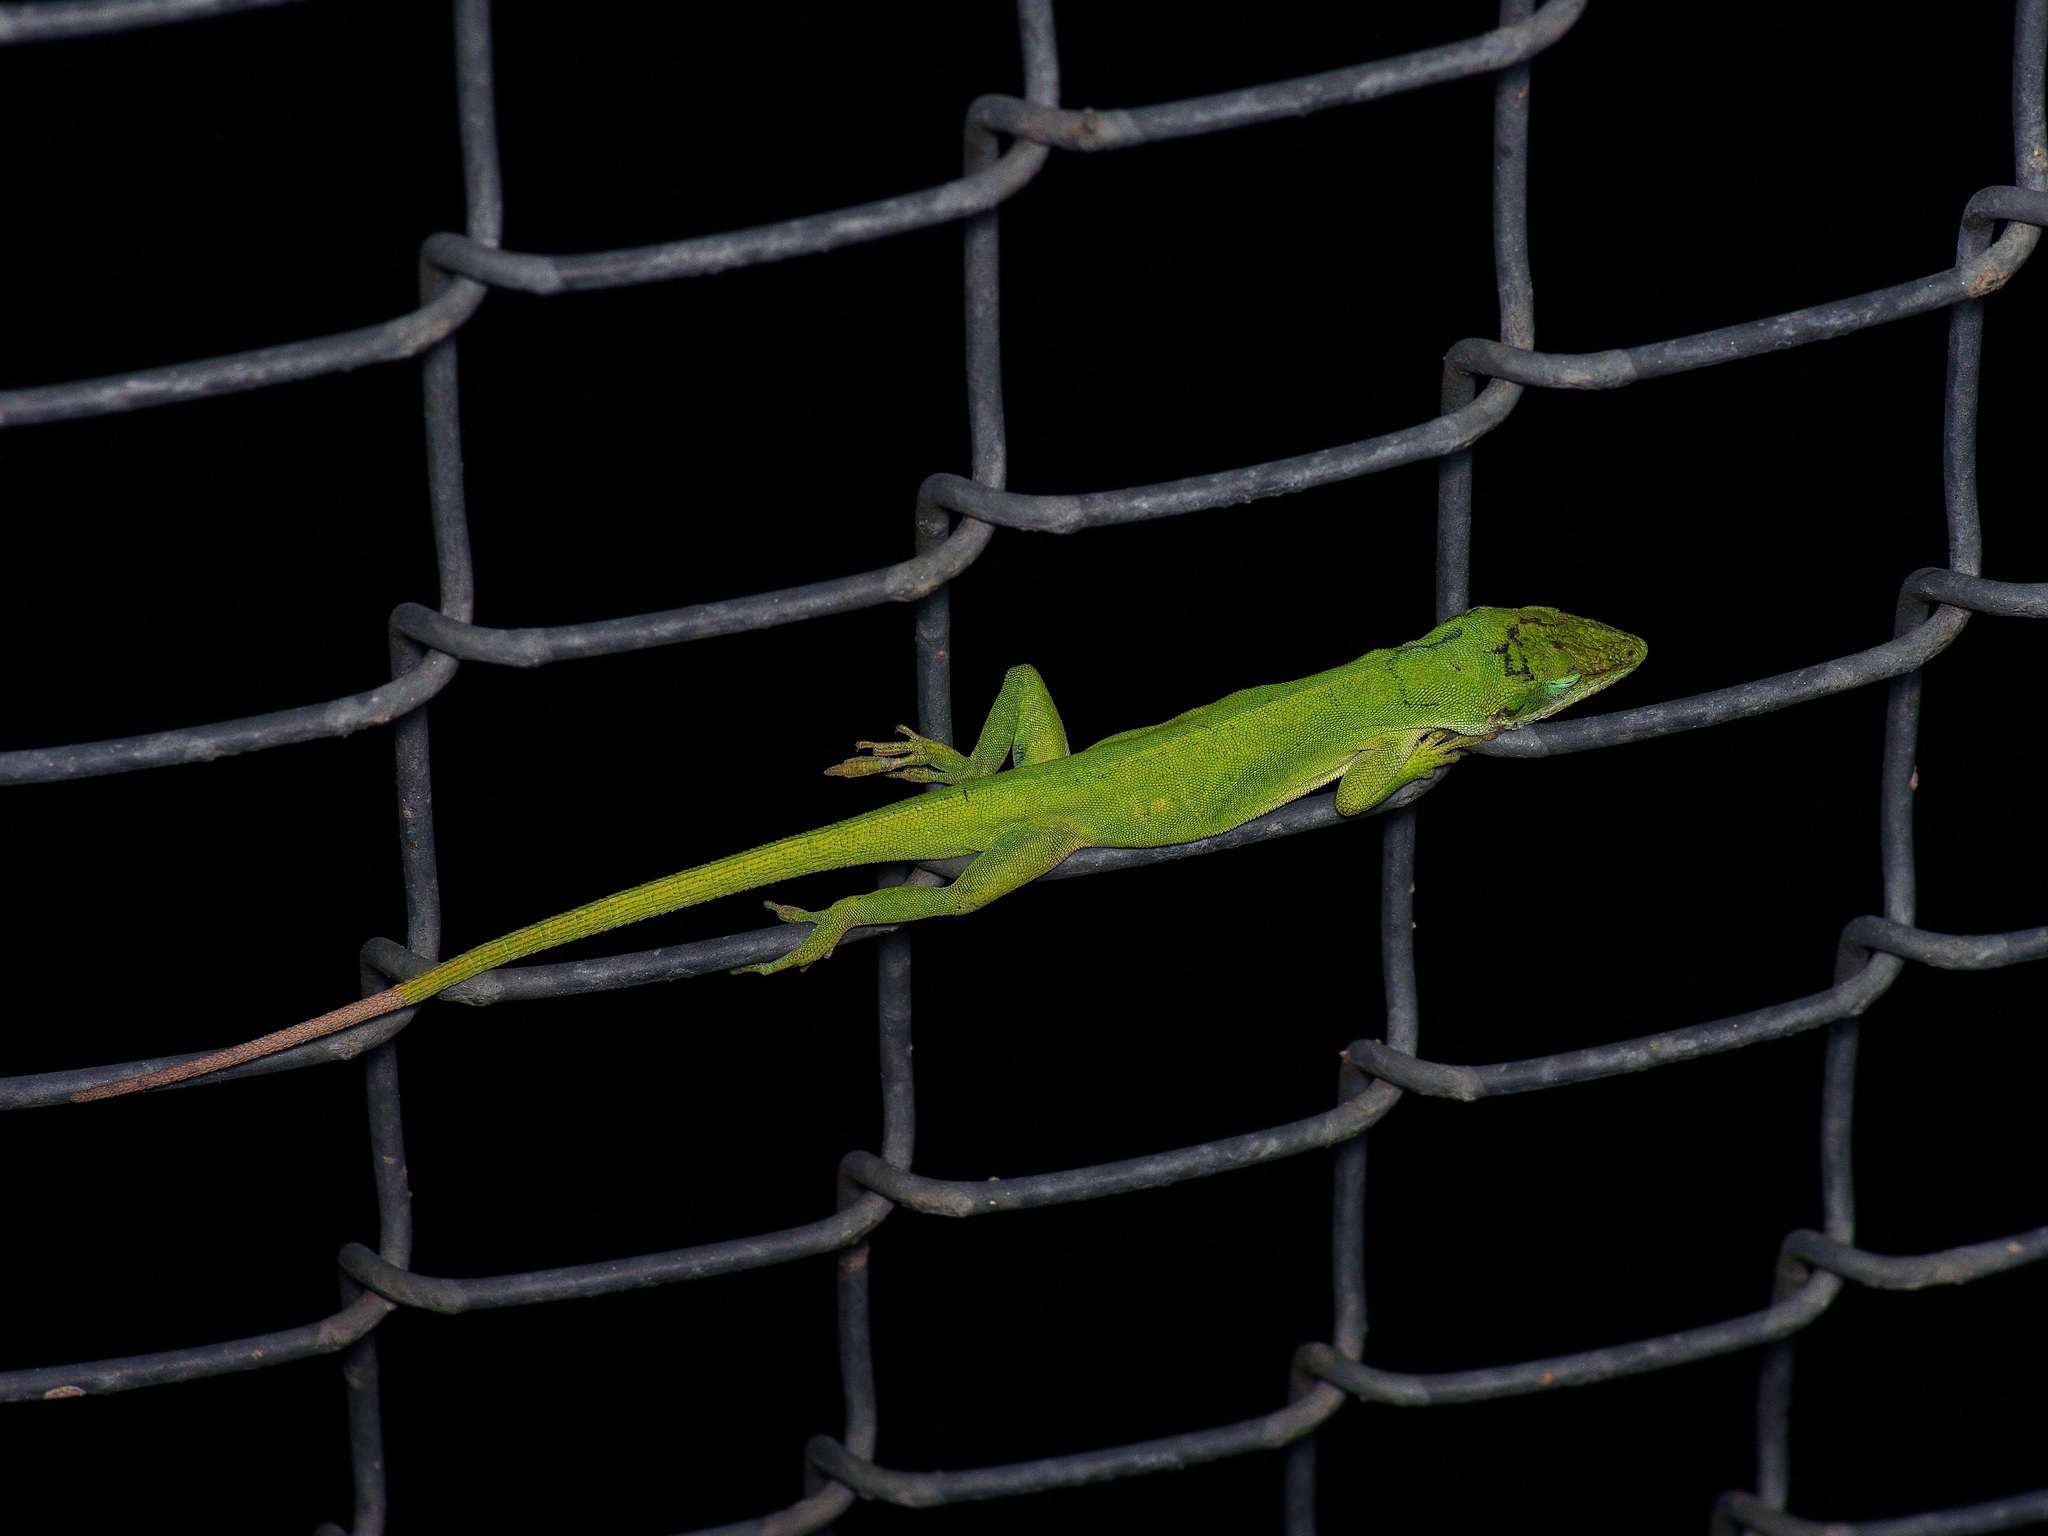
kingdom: Animalia
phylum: Chordata
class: Squamata
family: Dactyloidae
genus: Anolis
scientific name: Anolis carolinensis
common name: Green anole
